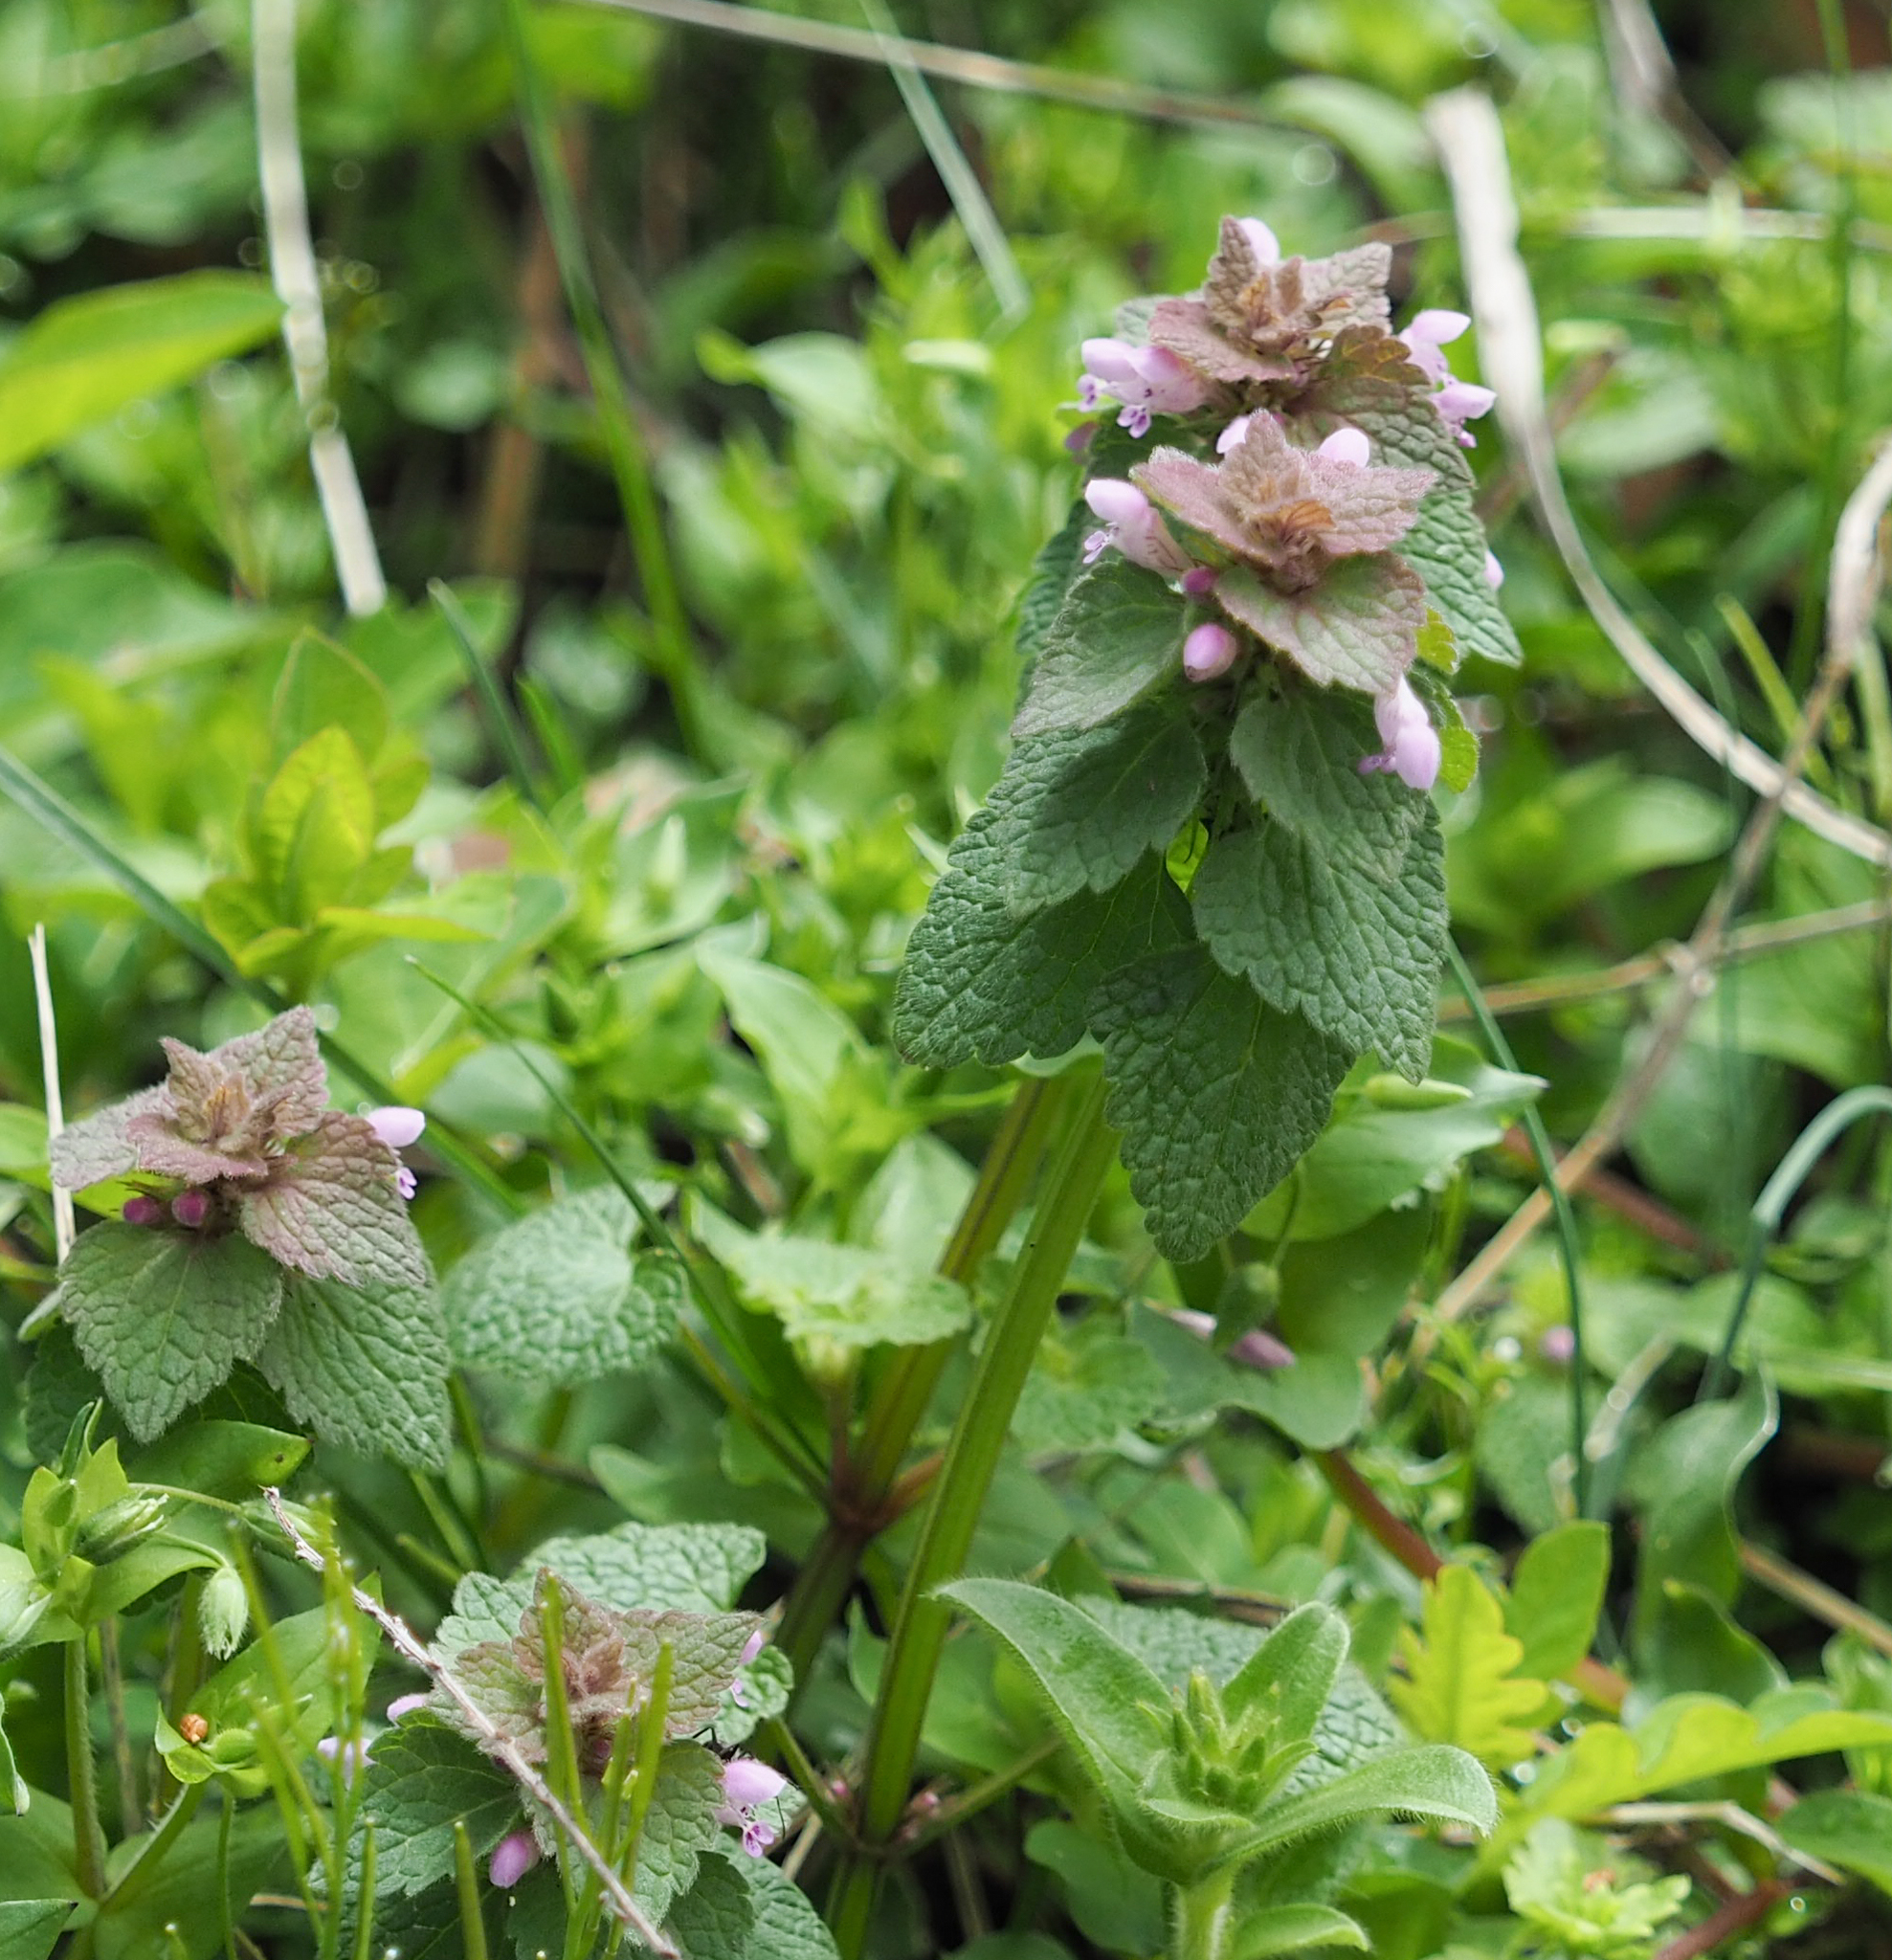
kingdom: Plantae
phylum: Tracheophyta
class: Magnoliopsida
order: Lamiales
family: Lamiaceae
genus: Lamium
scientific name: Lamium purpureum
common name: Red dead-nettle
